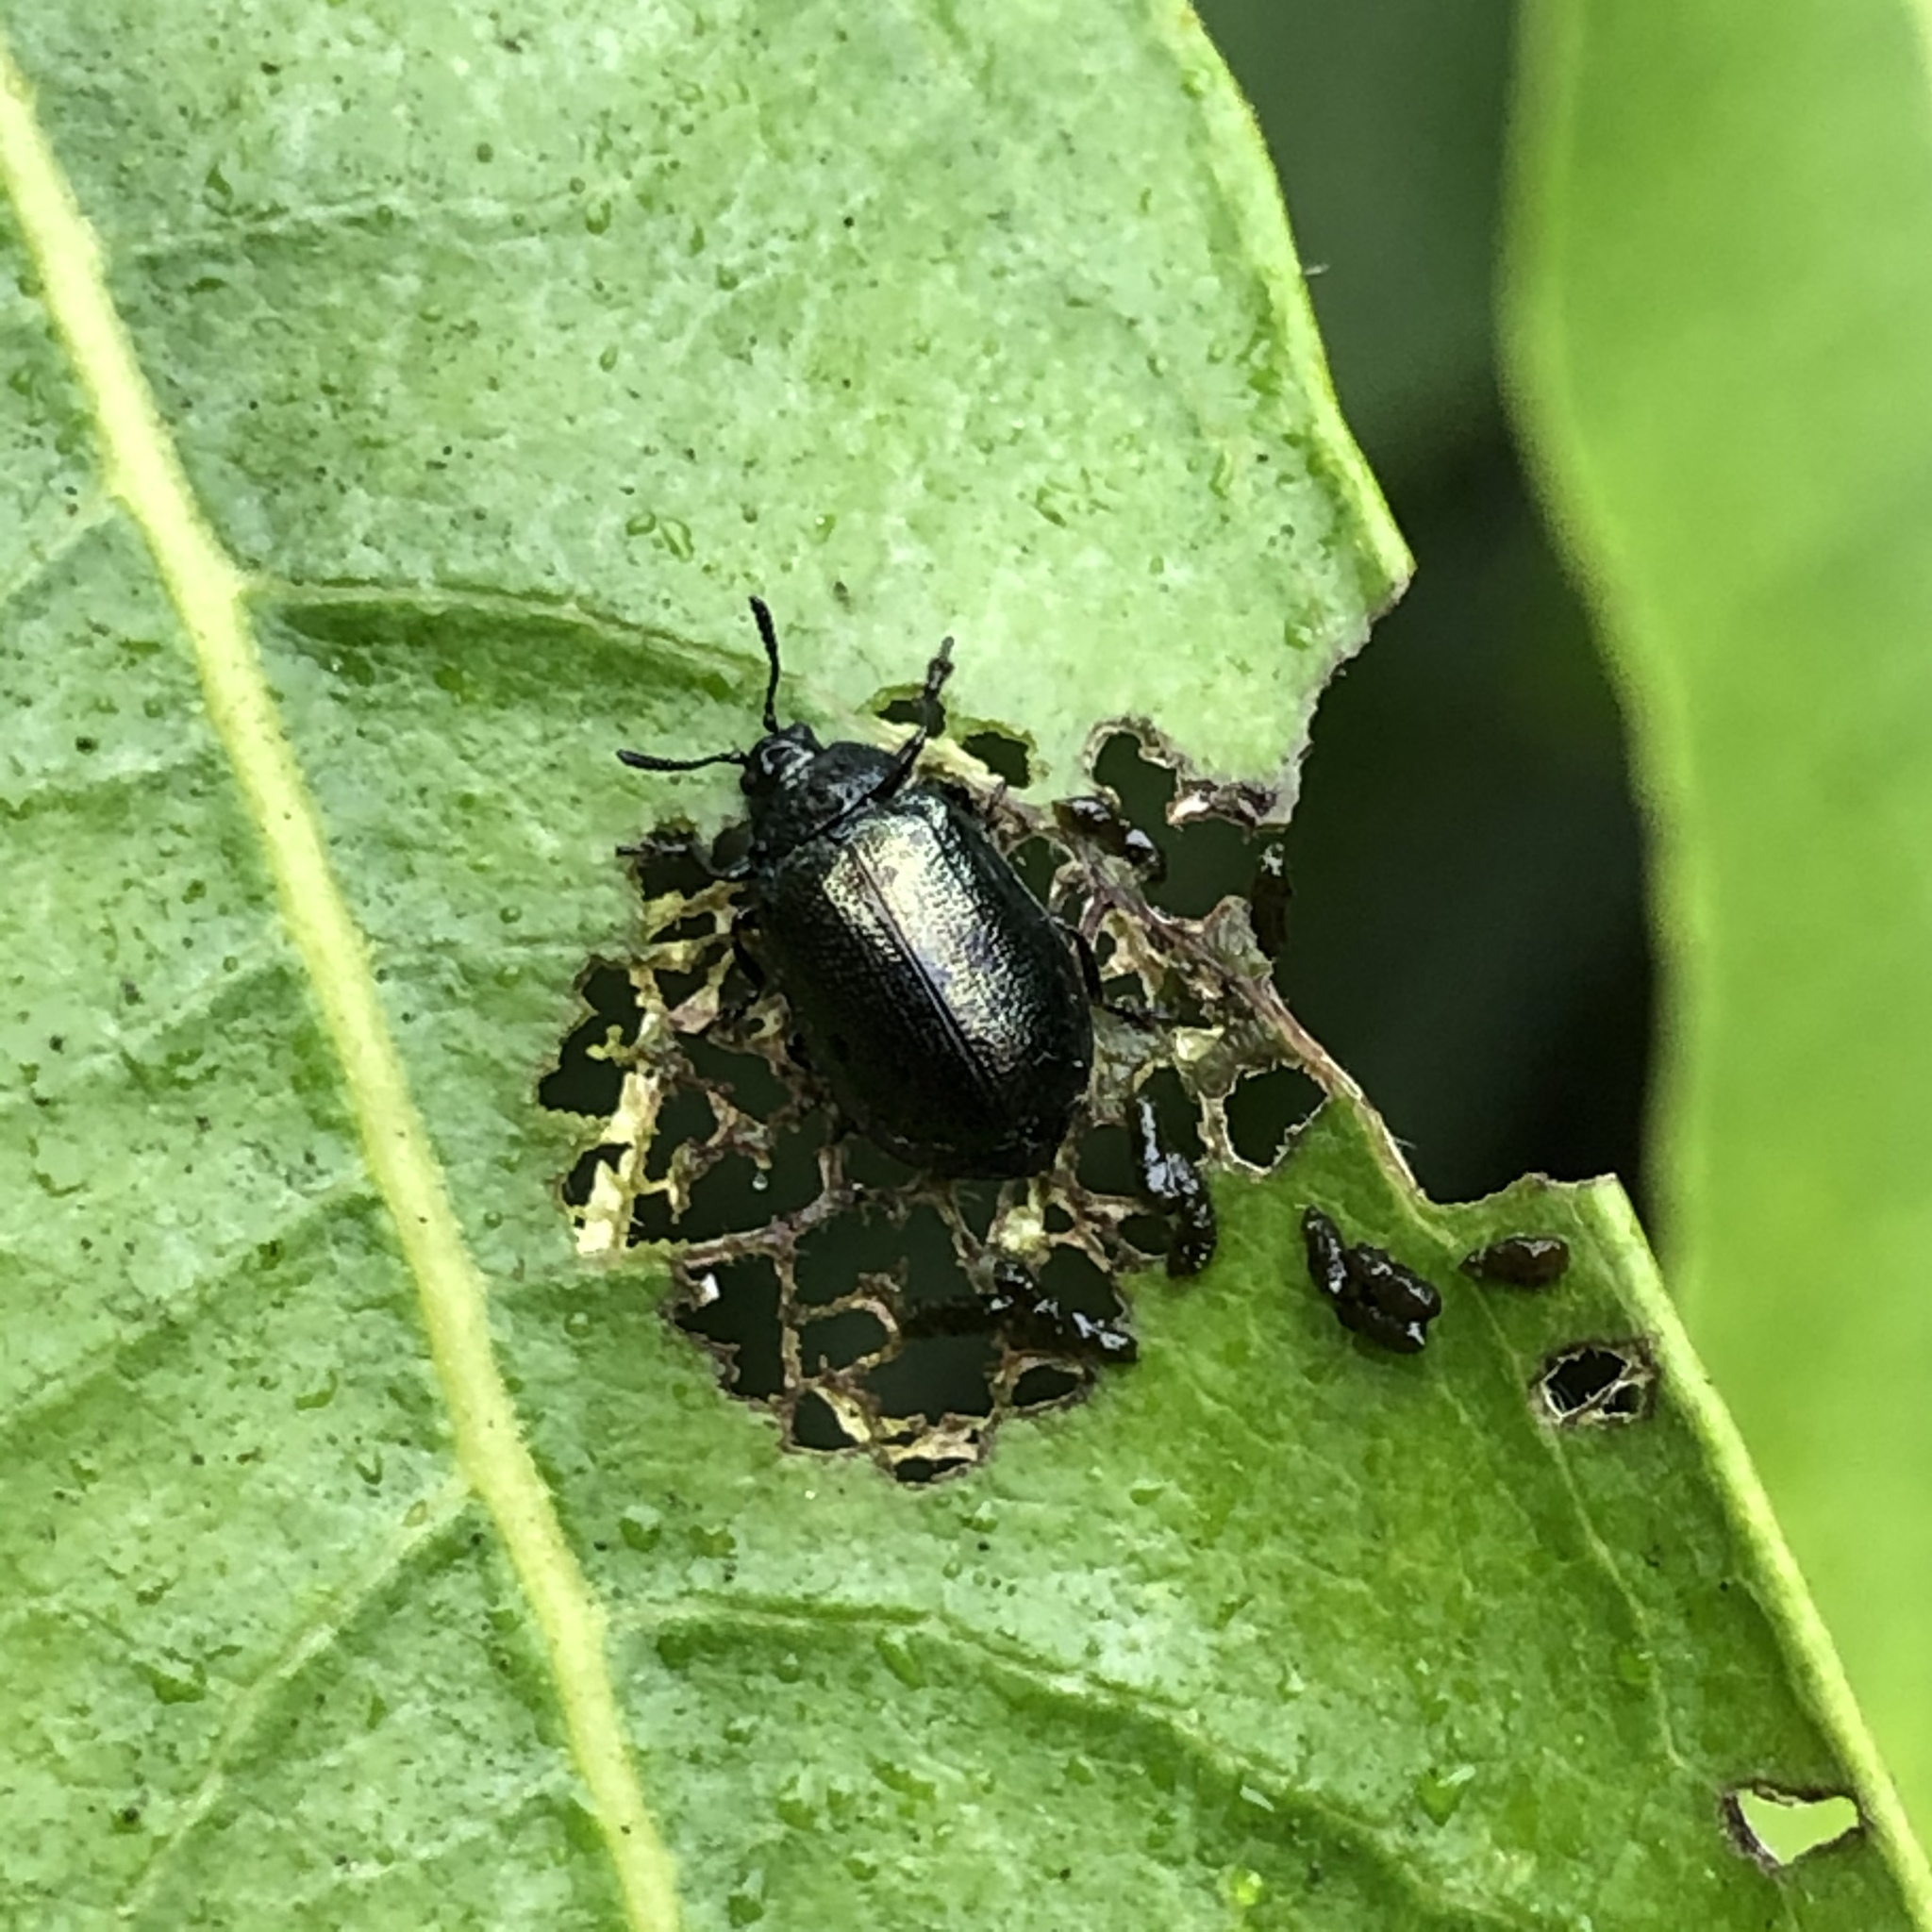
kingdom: Animalia
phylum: Arthropoda
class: Insecta
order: Coleoptera
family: Chrysomelidae
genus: Plagiodera
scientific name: Plagiodera californica
